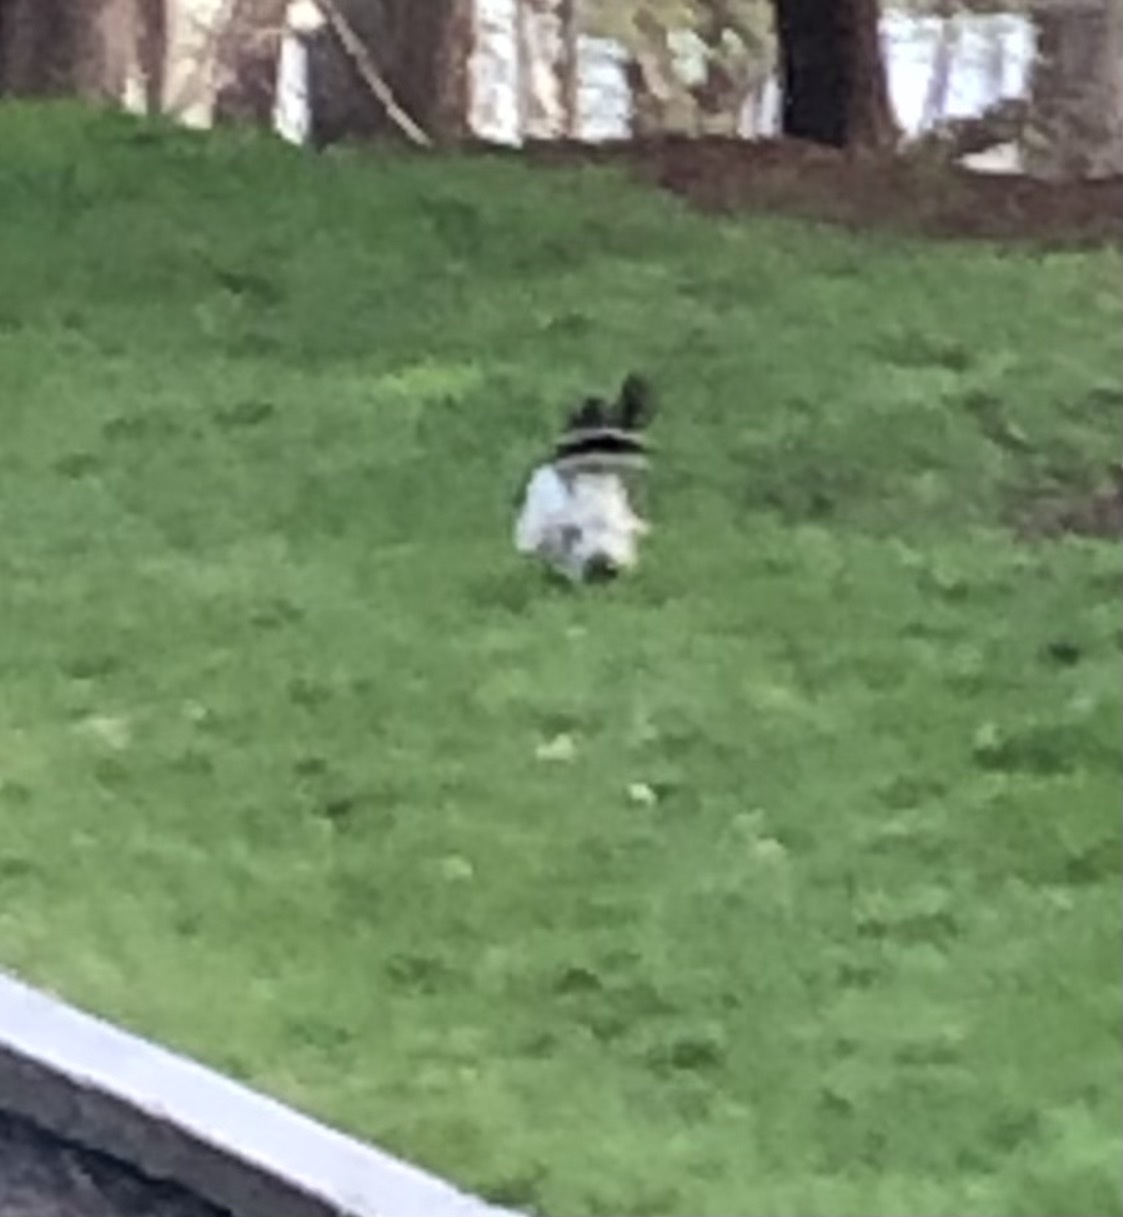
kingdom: Animalia
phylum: Chordata
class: Aves
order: Accipitriformes
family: Accipitridae
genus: Buteo
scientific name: Buteo platypterus
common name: Broad-winged hawk
